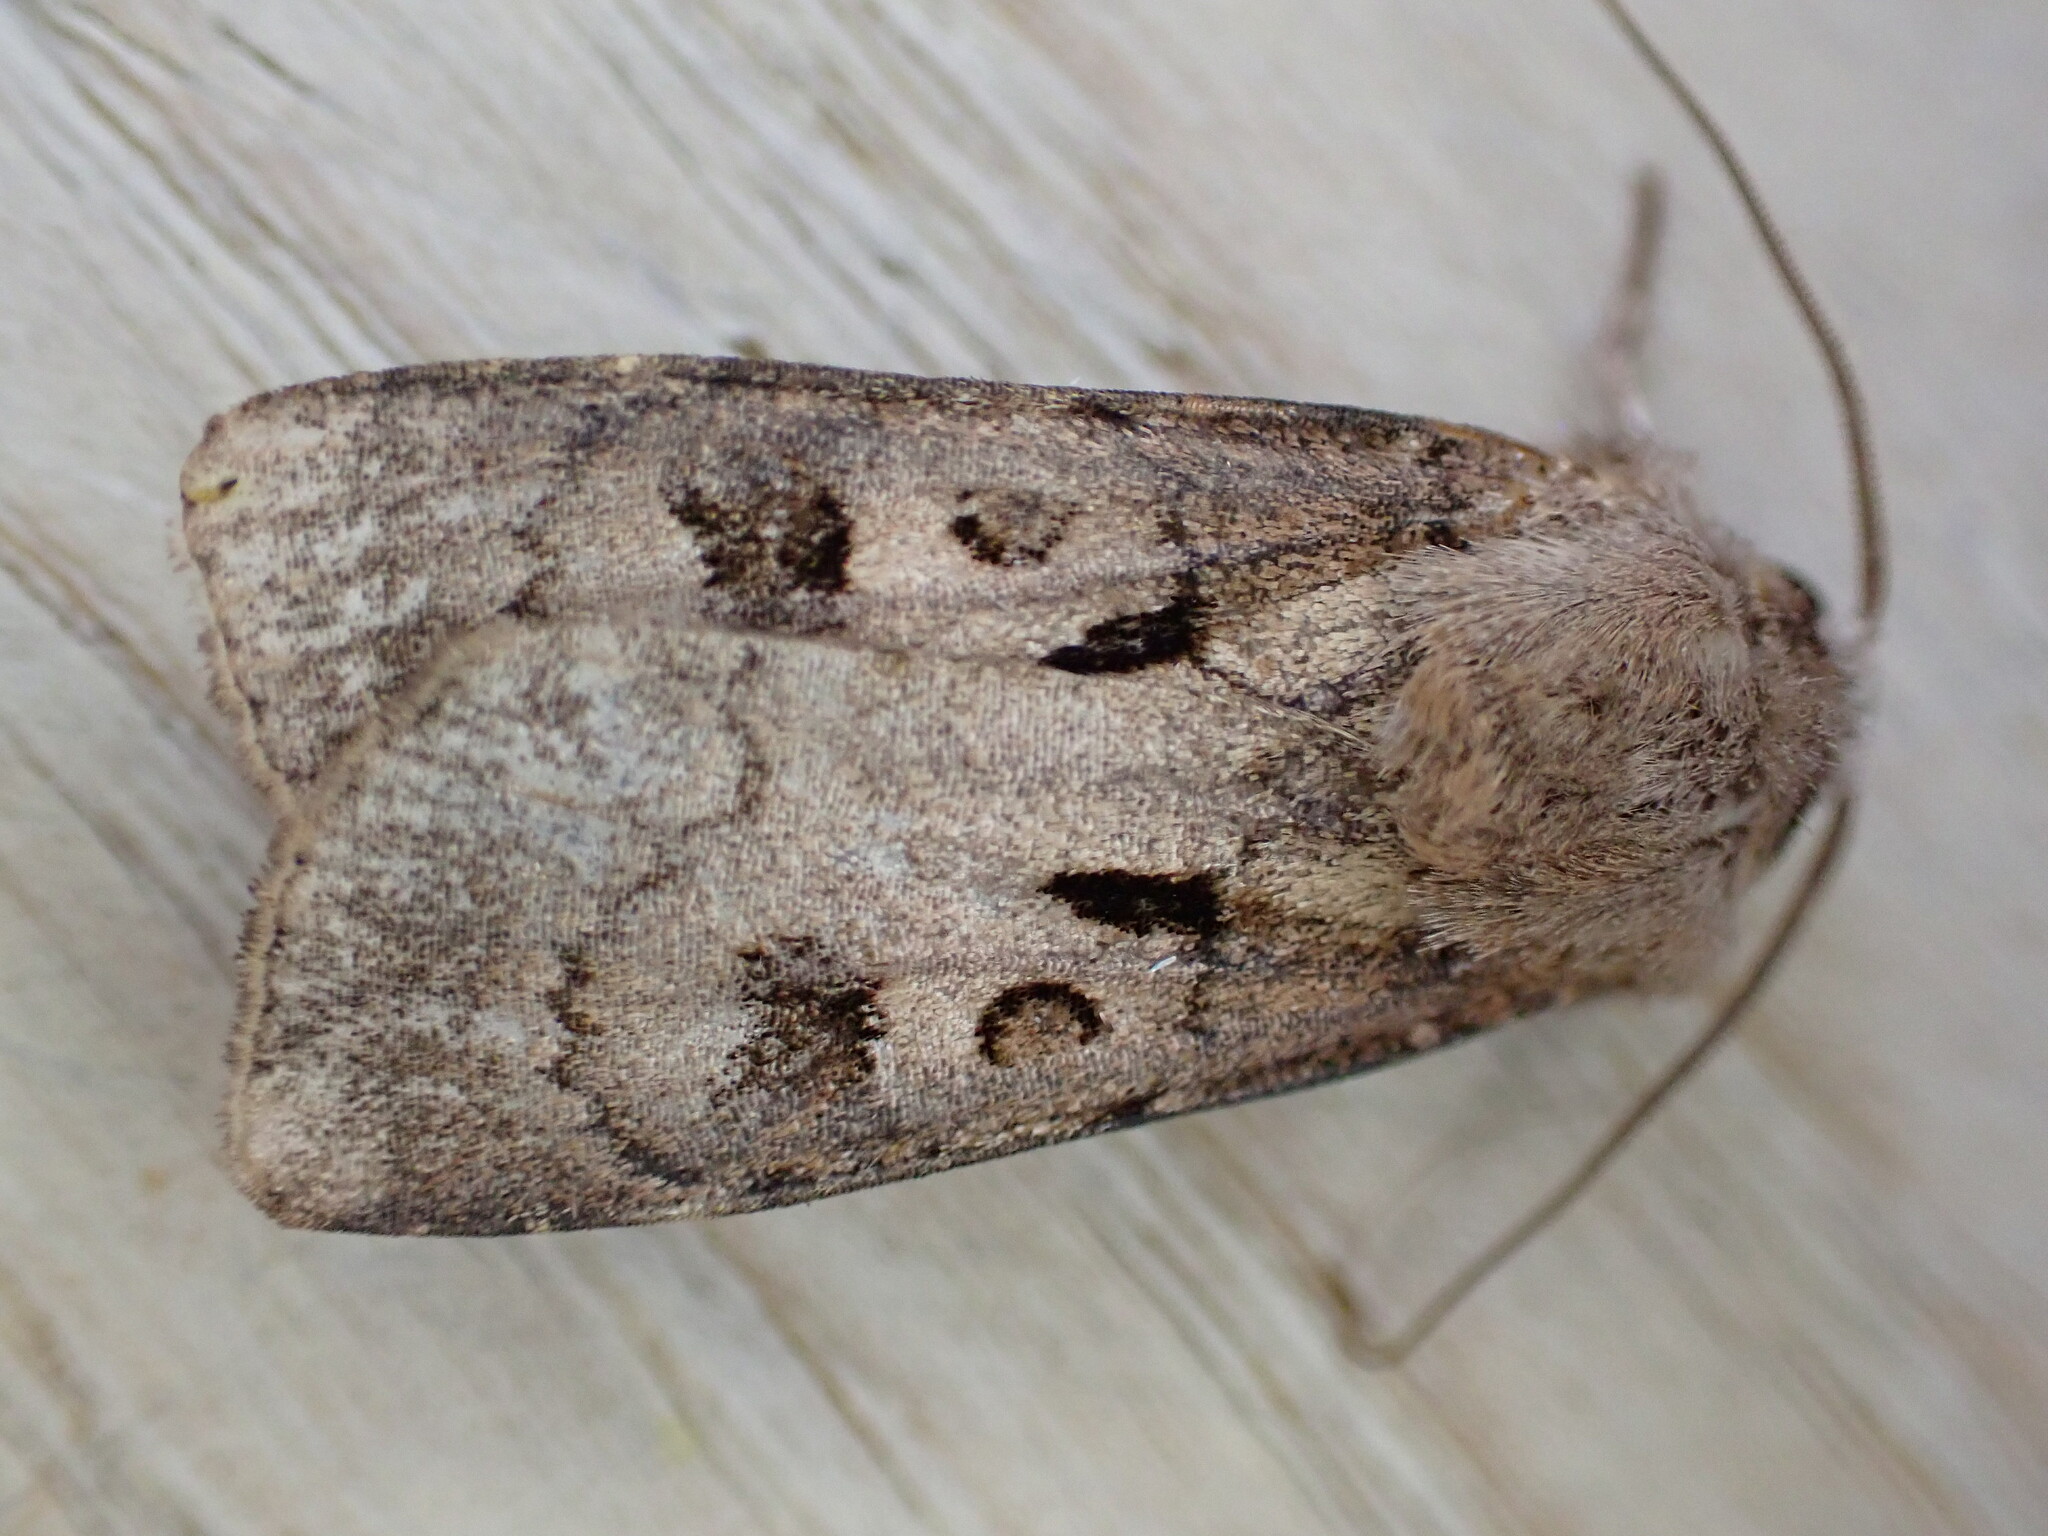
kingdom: Animalia
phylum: Arthropoda
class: Insecta
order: Lepidoptera
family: Noctuidae
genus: Agrotis
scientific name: Agrotis exclamationis
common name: Heart and dart
